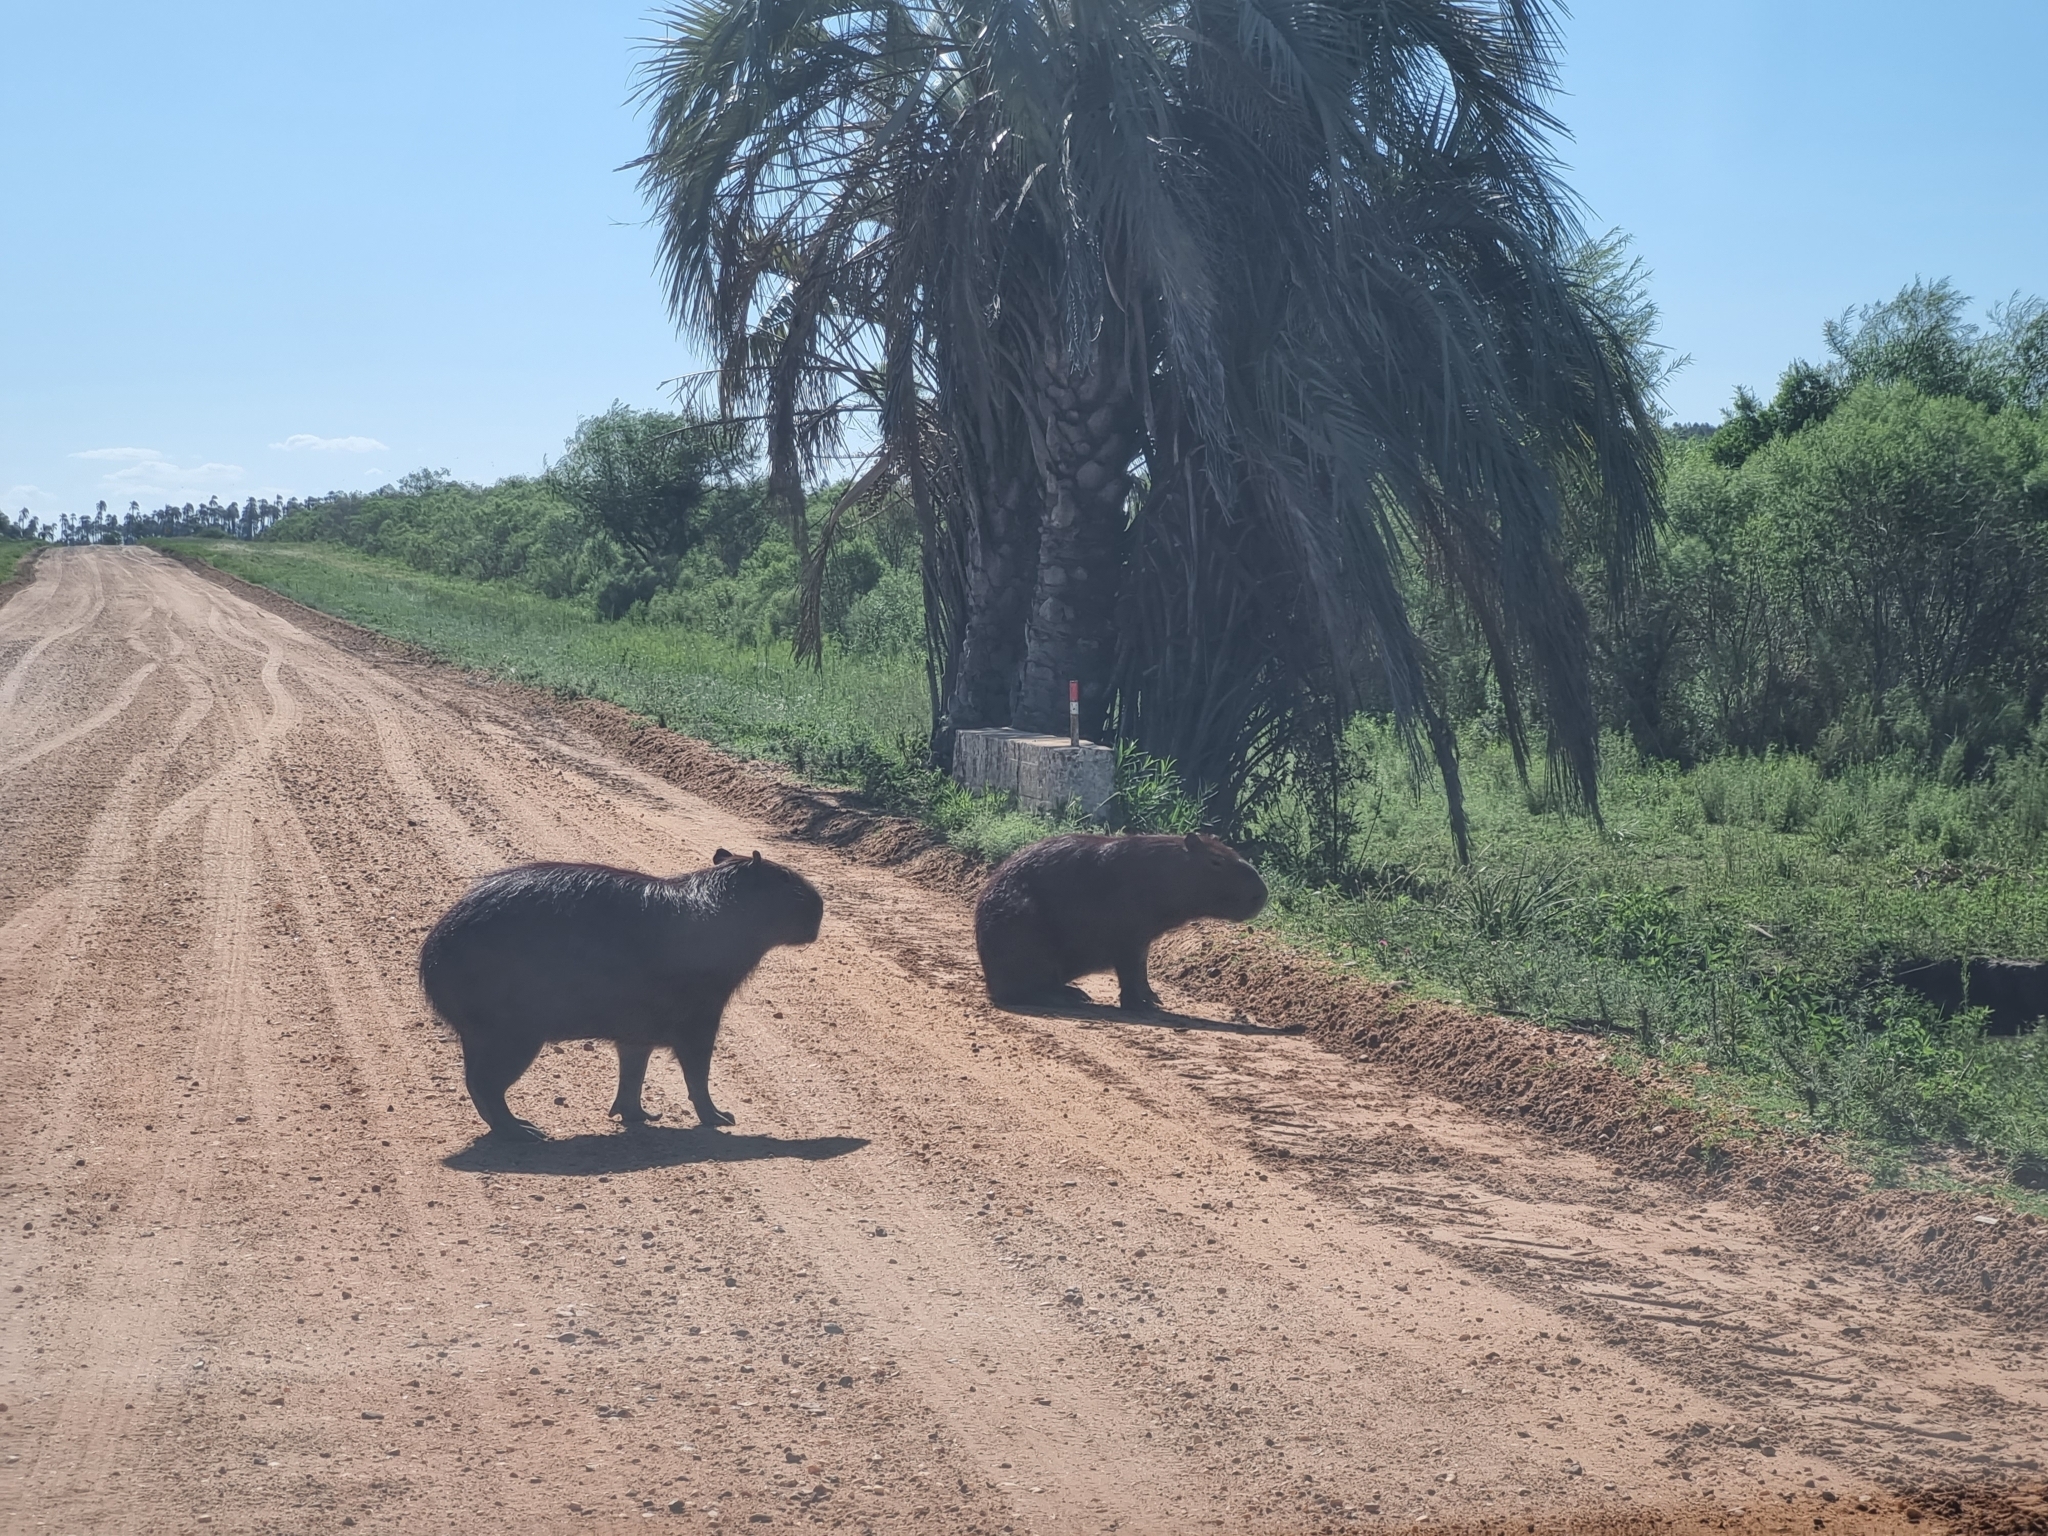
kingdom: Animalia
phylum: Chordata
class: Mammalia
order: Rodentia
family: Caviidae
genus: Hydrochoerus
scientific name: Hydrochoerus hydrochaeris
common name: Capybara
